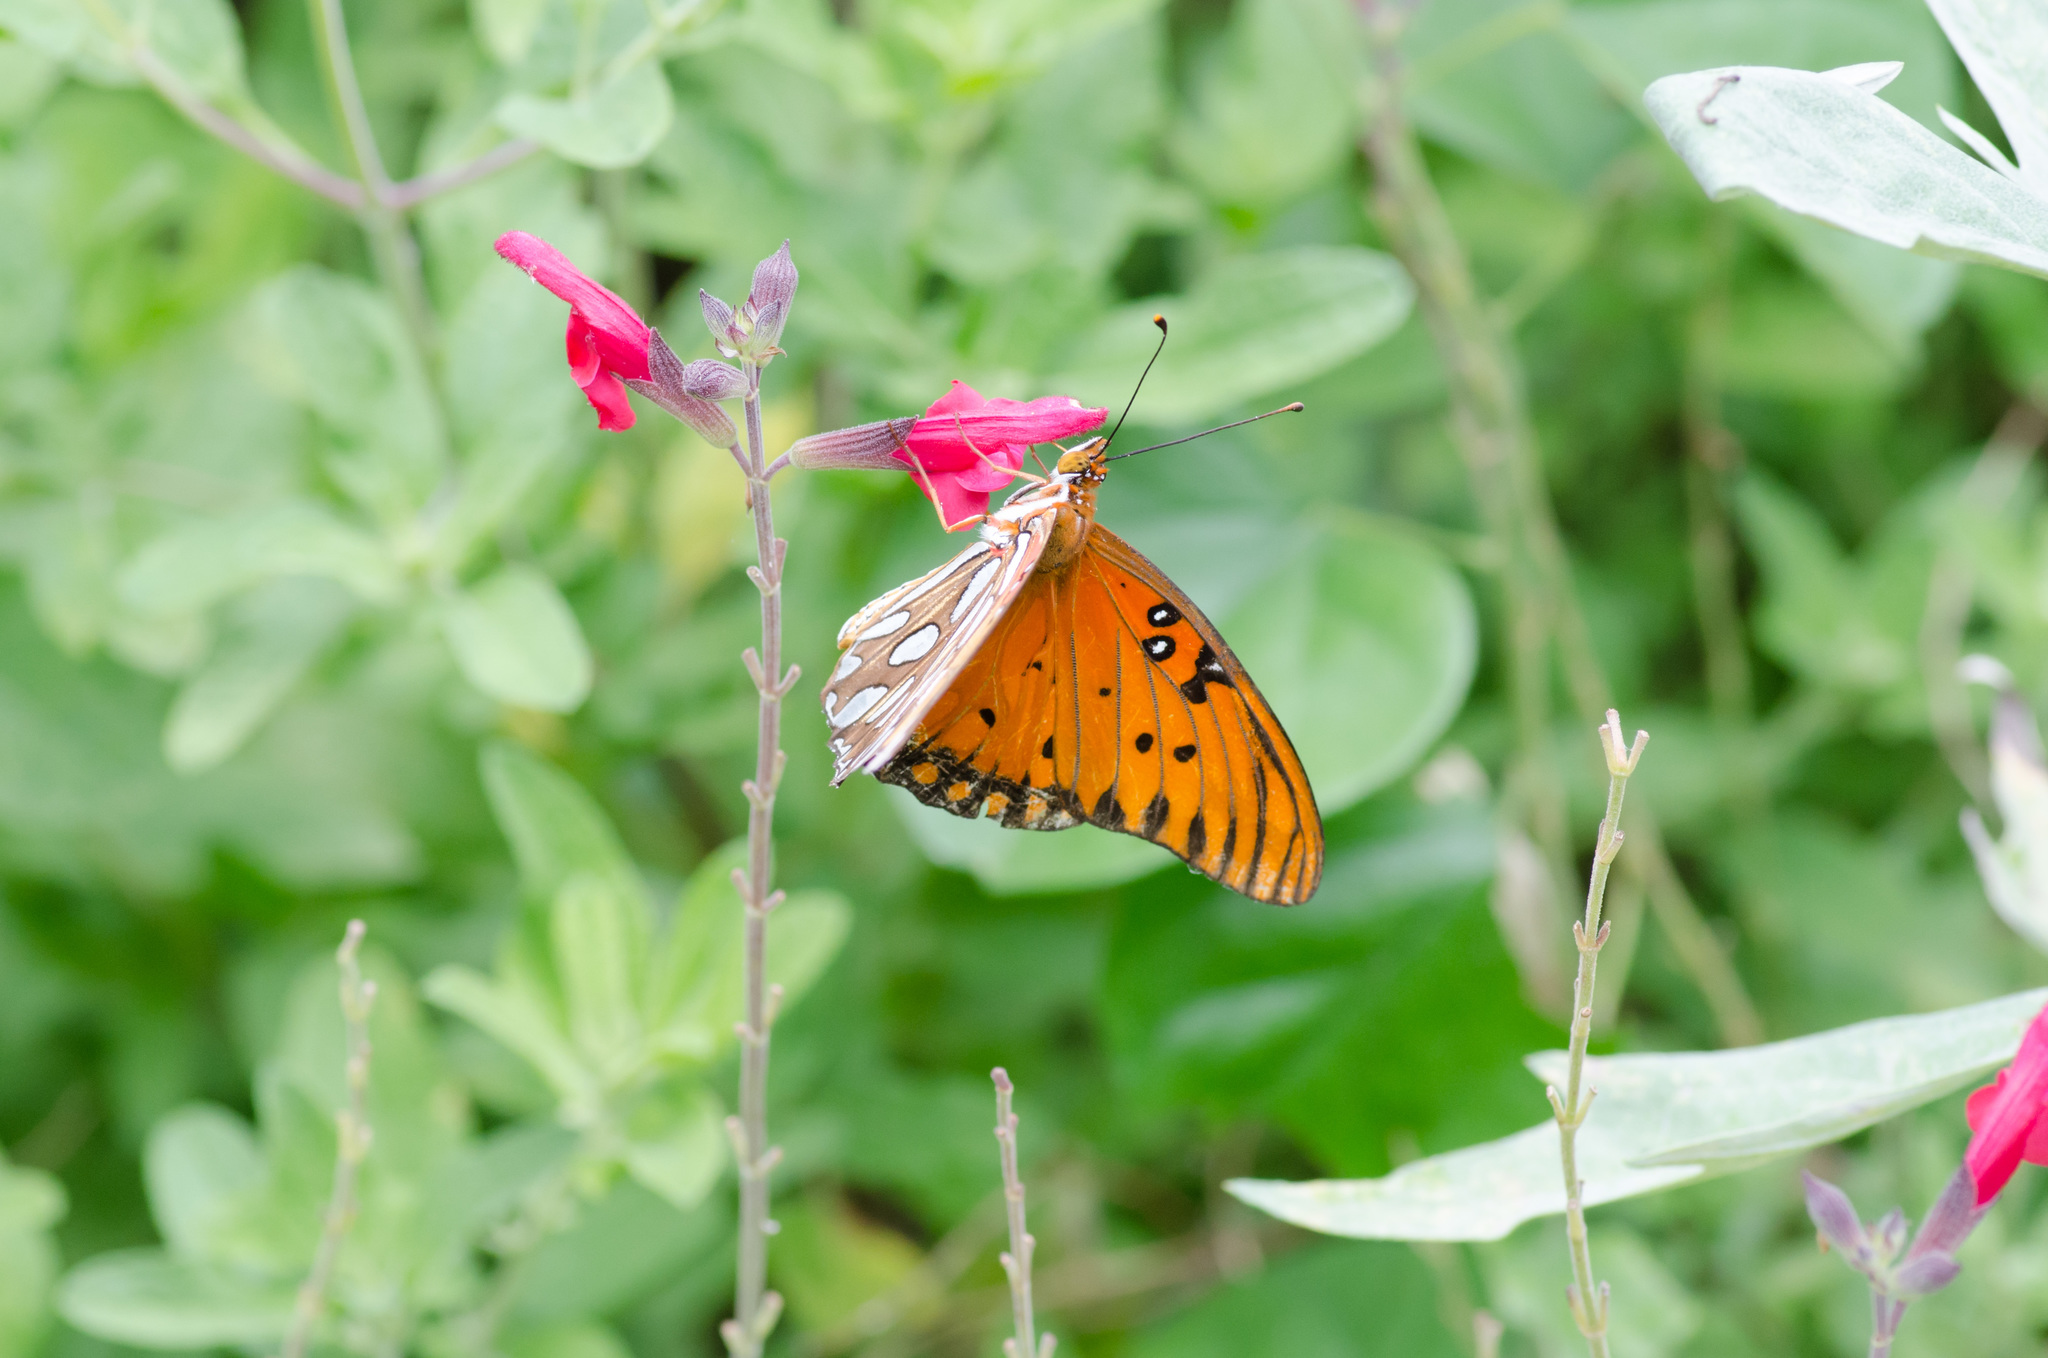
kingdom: Animalia
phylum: Arthropoda
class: Insecta
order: Lepidoptera
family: Nymphalidae
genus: Dione
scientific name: Dione vanillae
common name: Gulf fritillary
